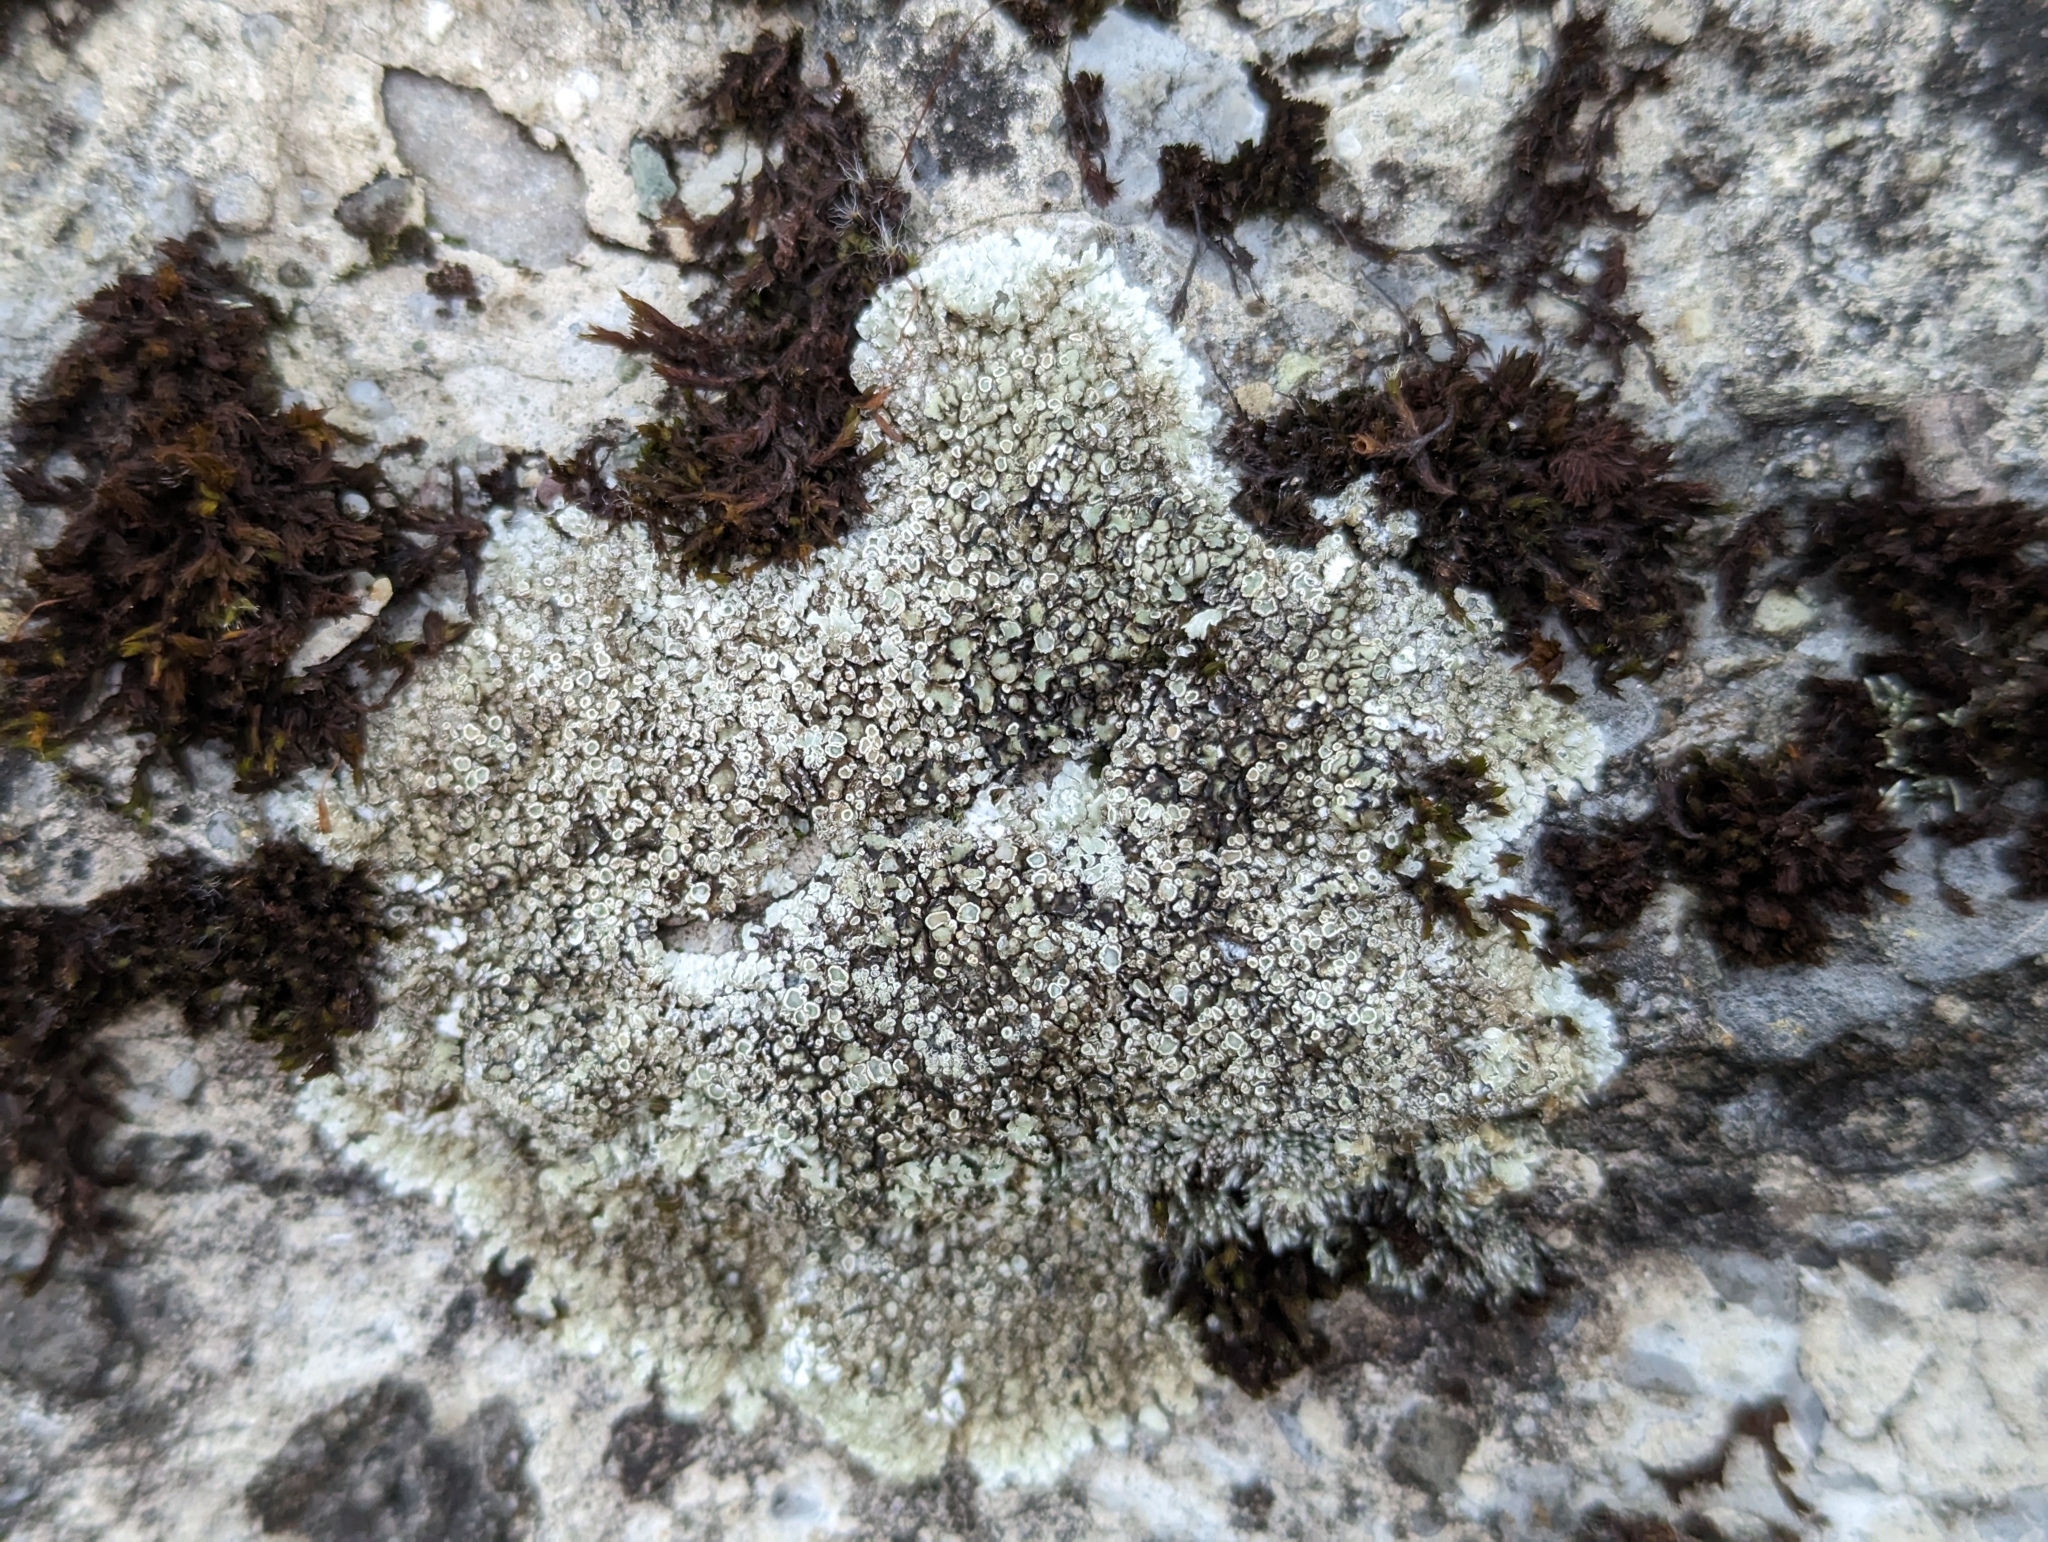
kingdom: Fungi
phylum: Ascomycota
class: Lecanoromycetes
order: Lecanorales
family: Lecanoraceae
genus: Protoparmeliopsis
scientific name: Protoparmeliopsis muralis
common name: Stonewall rim lichen
